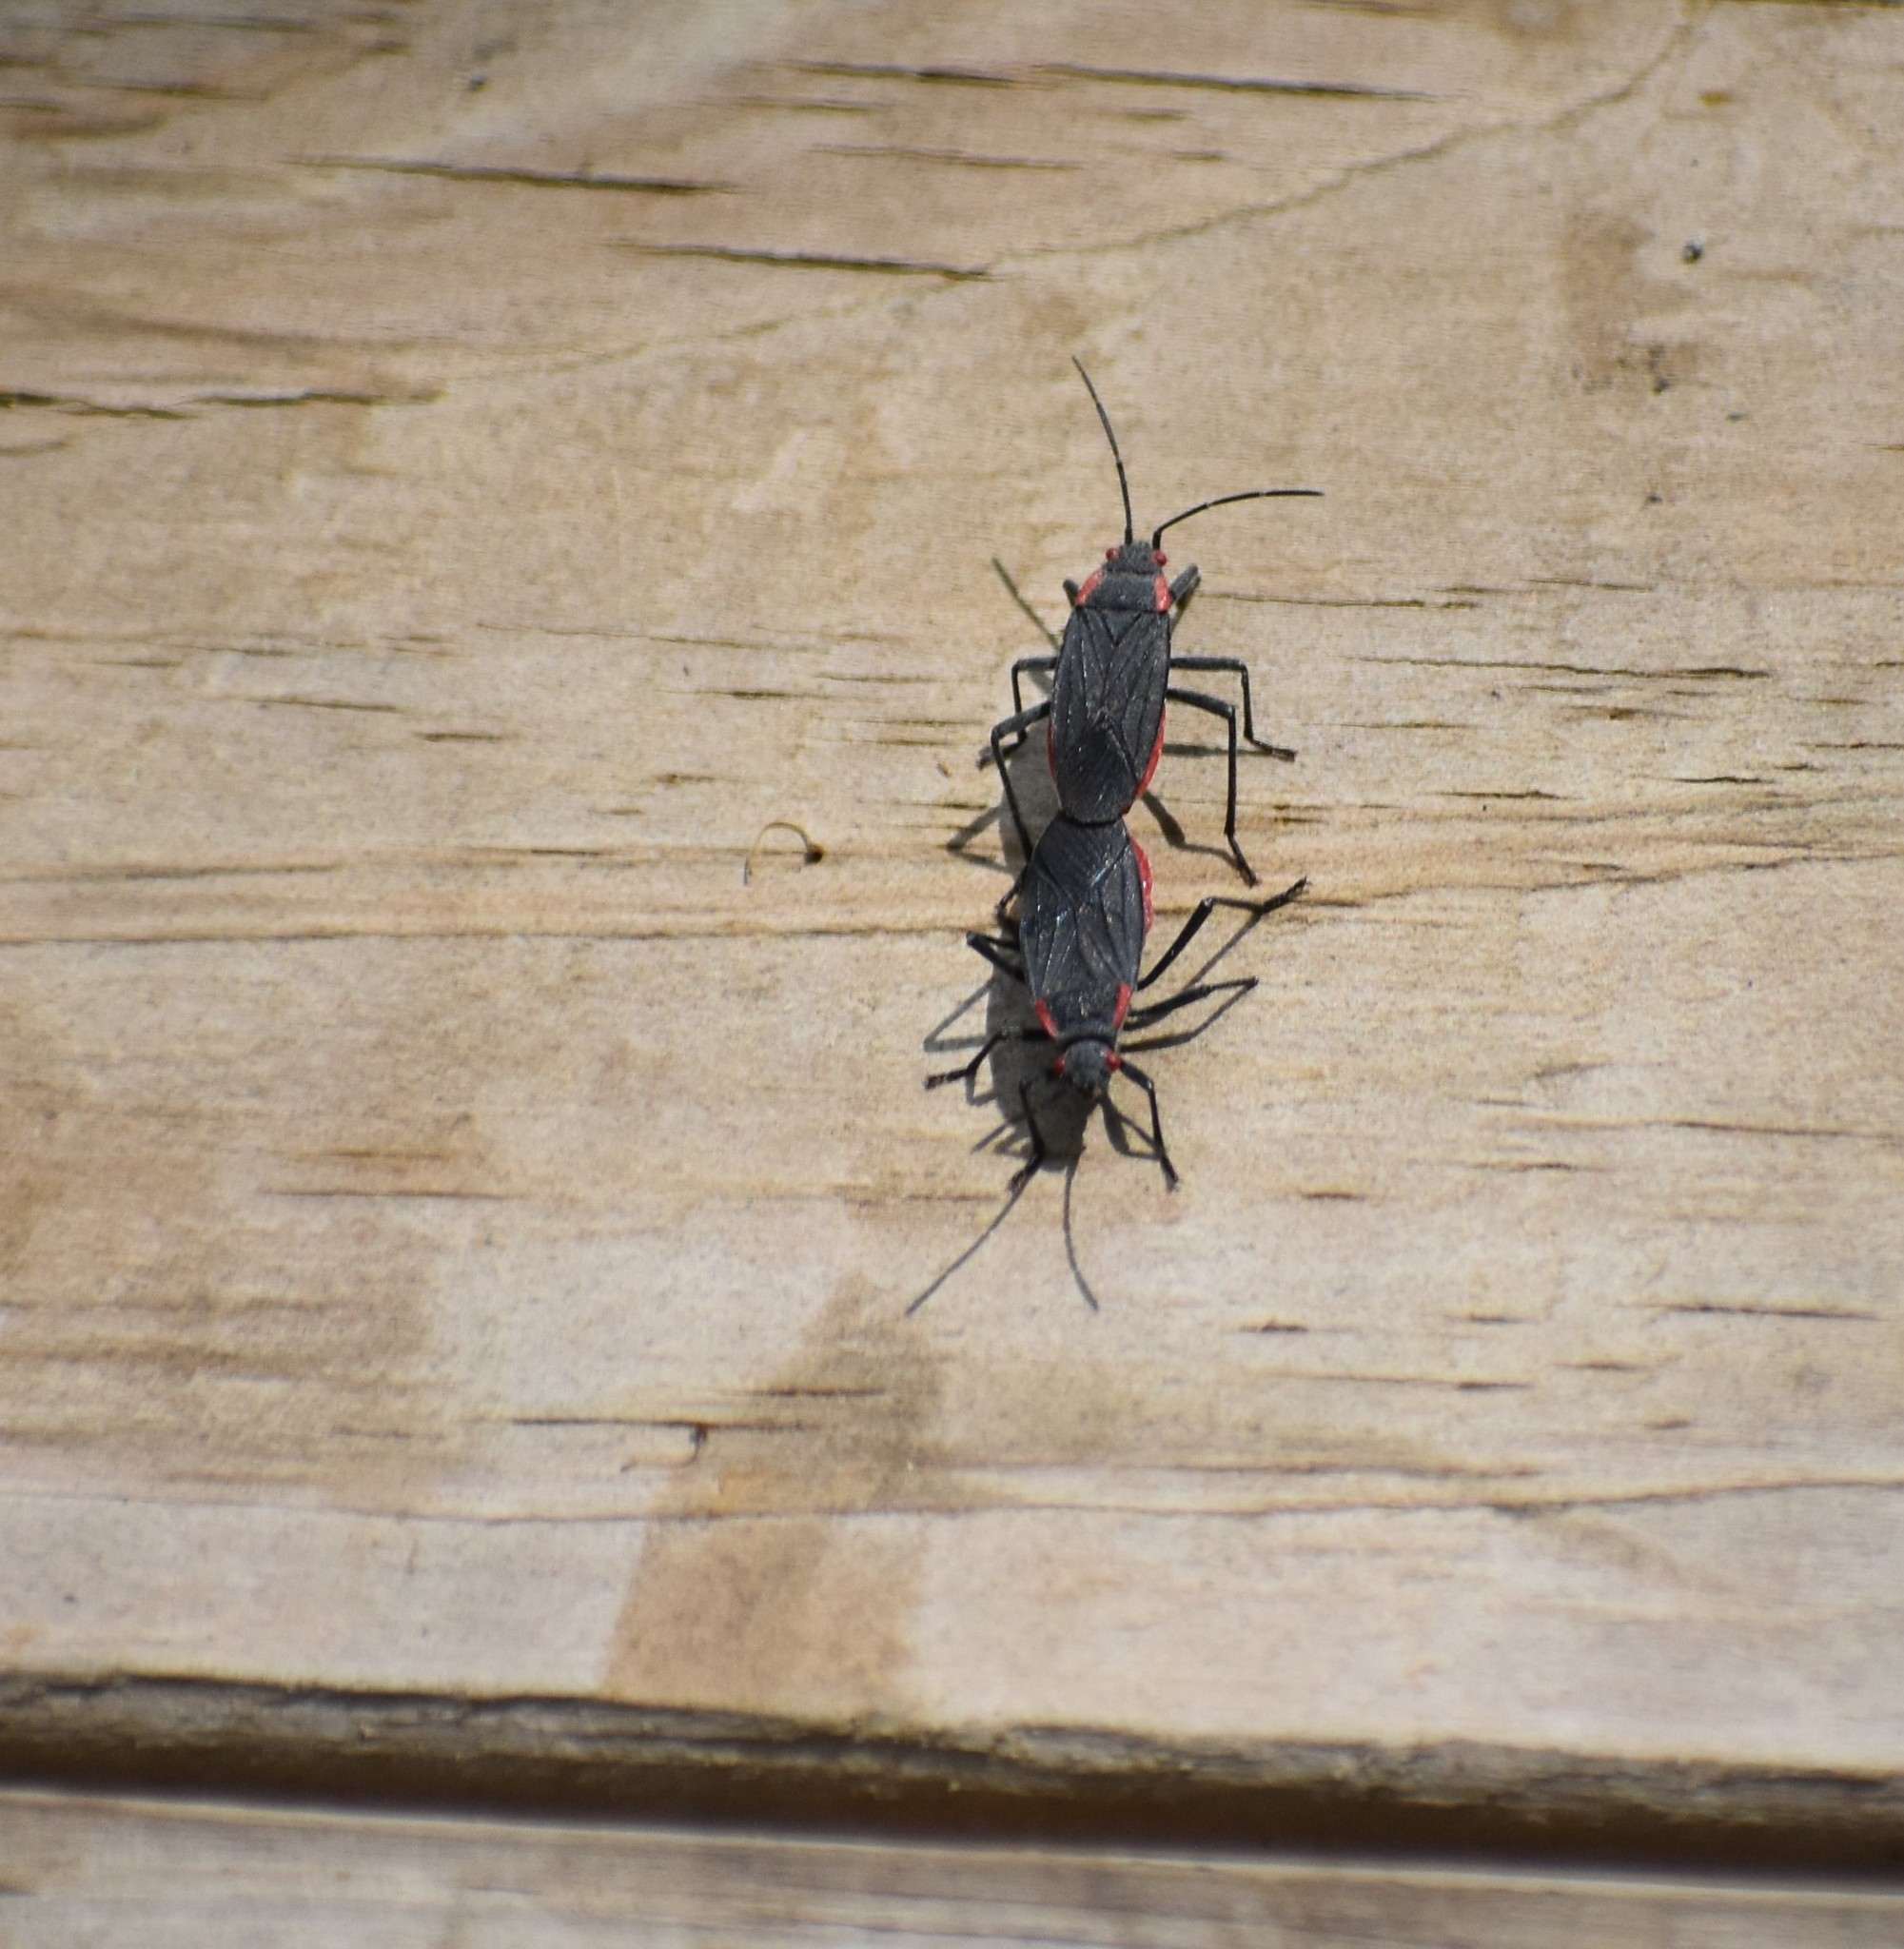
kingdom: Animalia
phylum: Arthropoda
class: Insecta
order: Hemiptera
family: Rhopalidae
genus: Jadera
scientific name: Jadera haematoloma
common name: Red-shouldered bug
